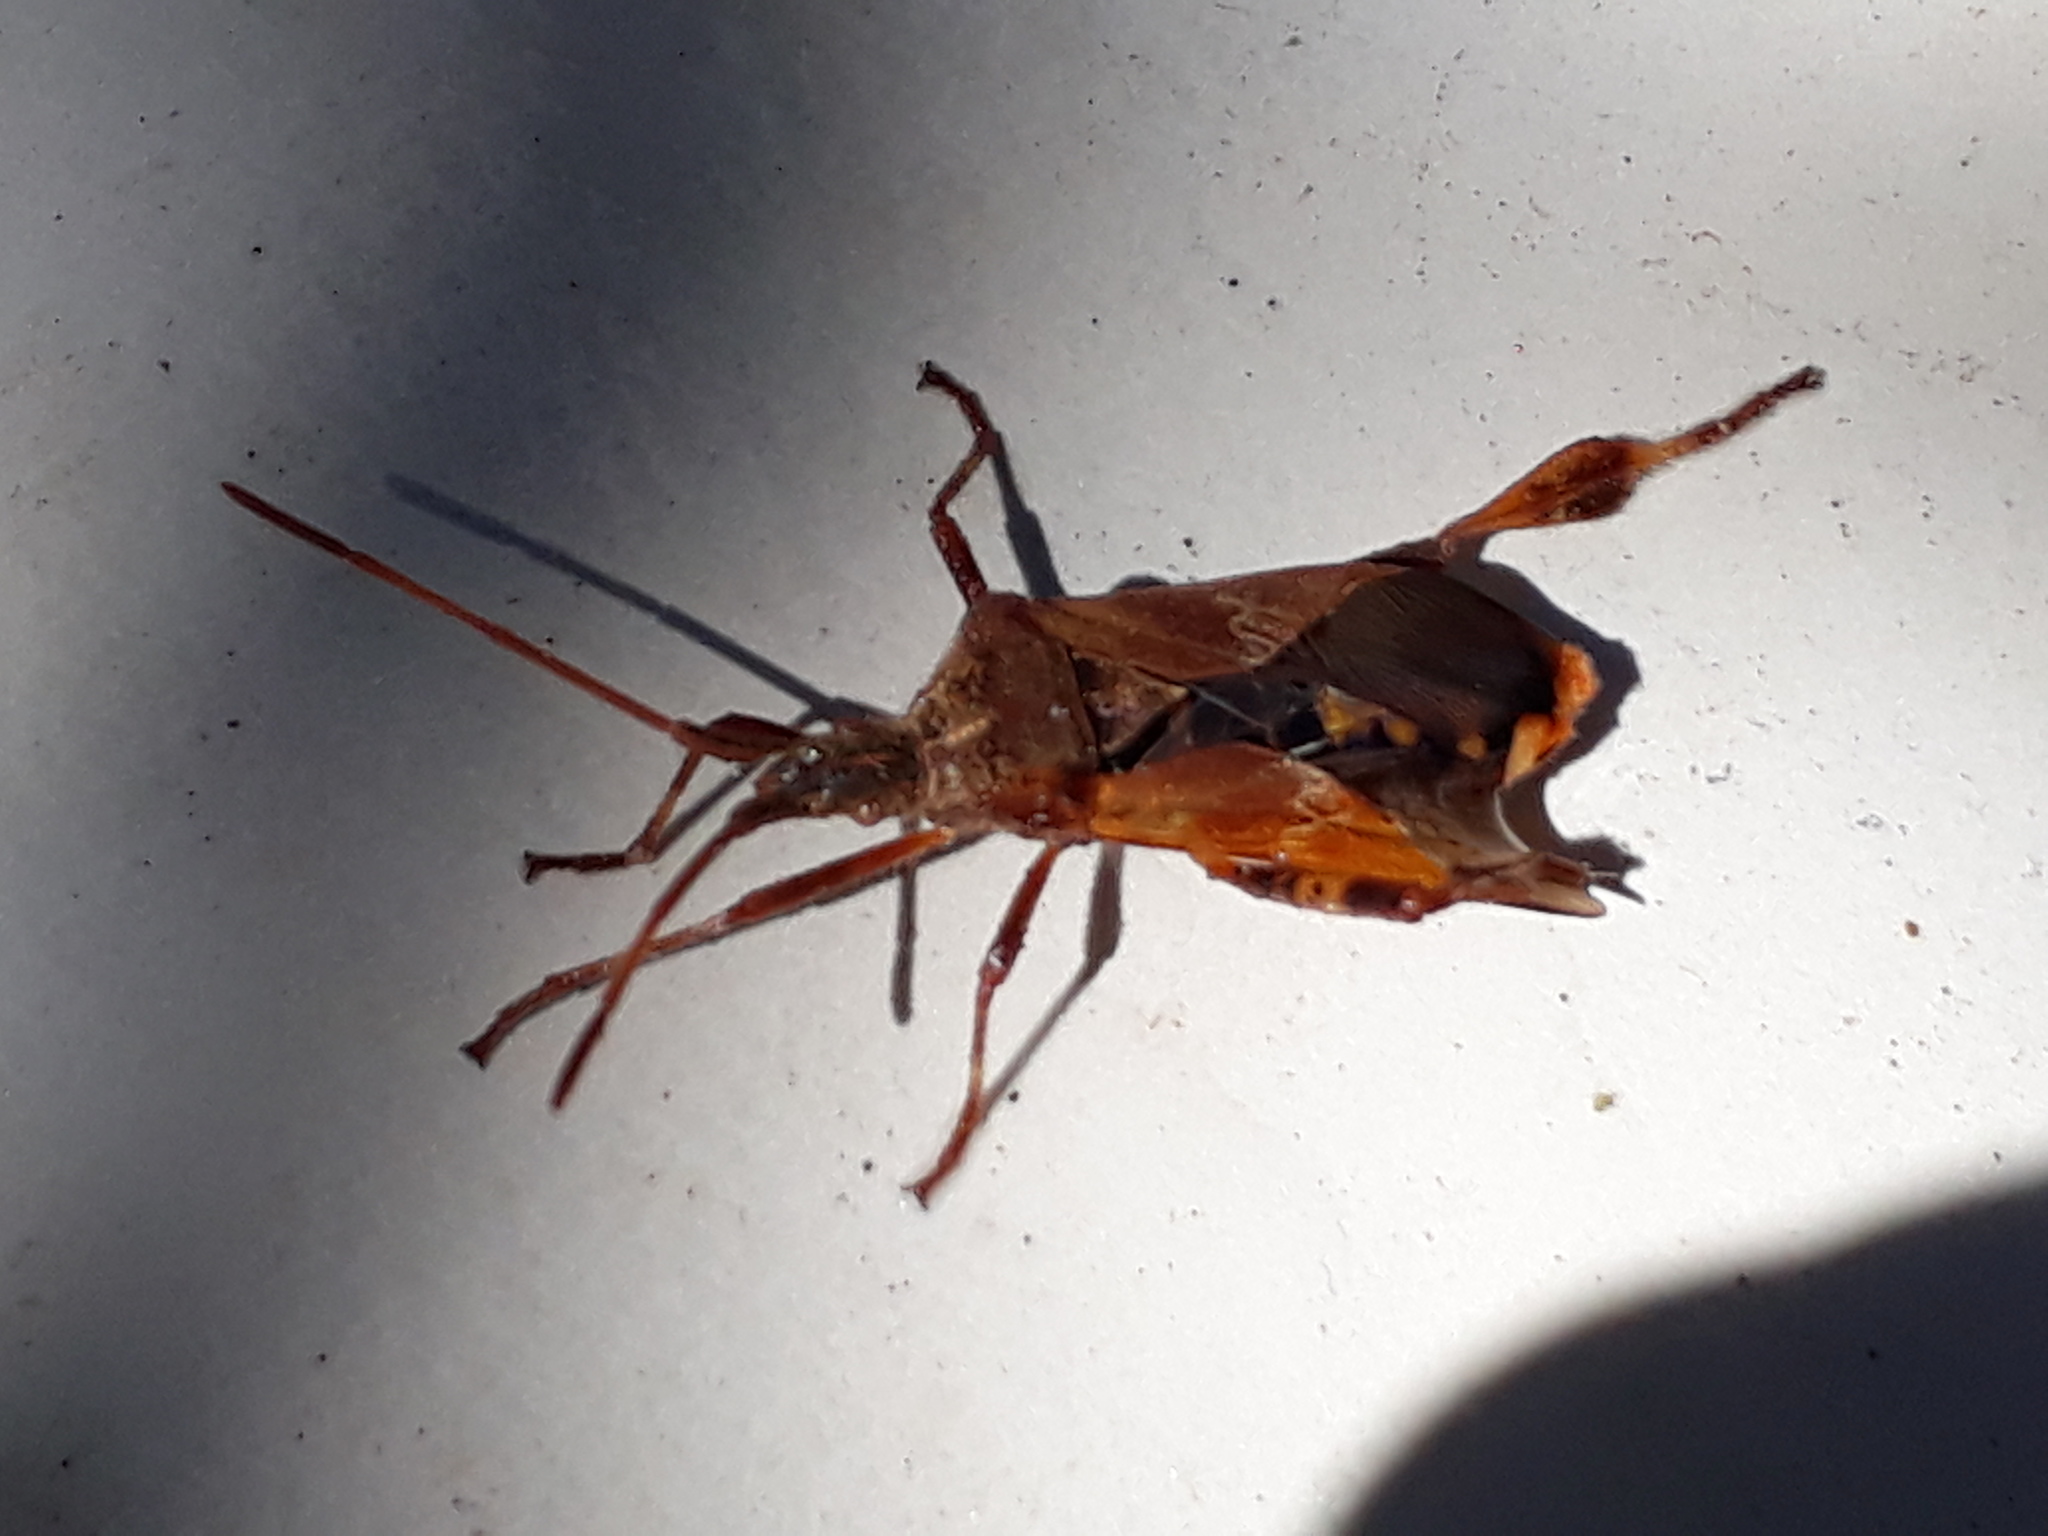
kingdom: Animalia
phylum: Arthropoda
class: Insecta
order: Hemiptera
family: Coreidae
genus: Leptoglossus
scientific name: Leptoglossus occidentalis
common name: Western conifer-seed bug
